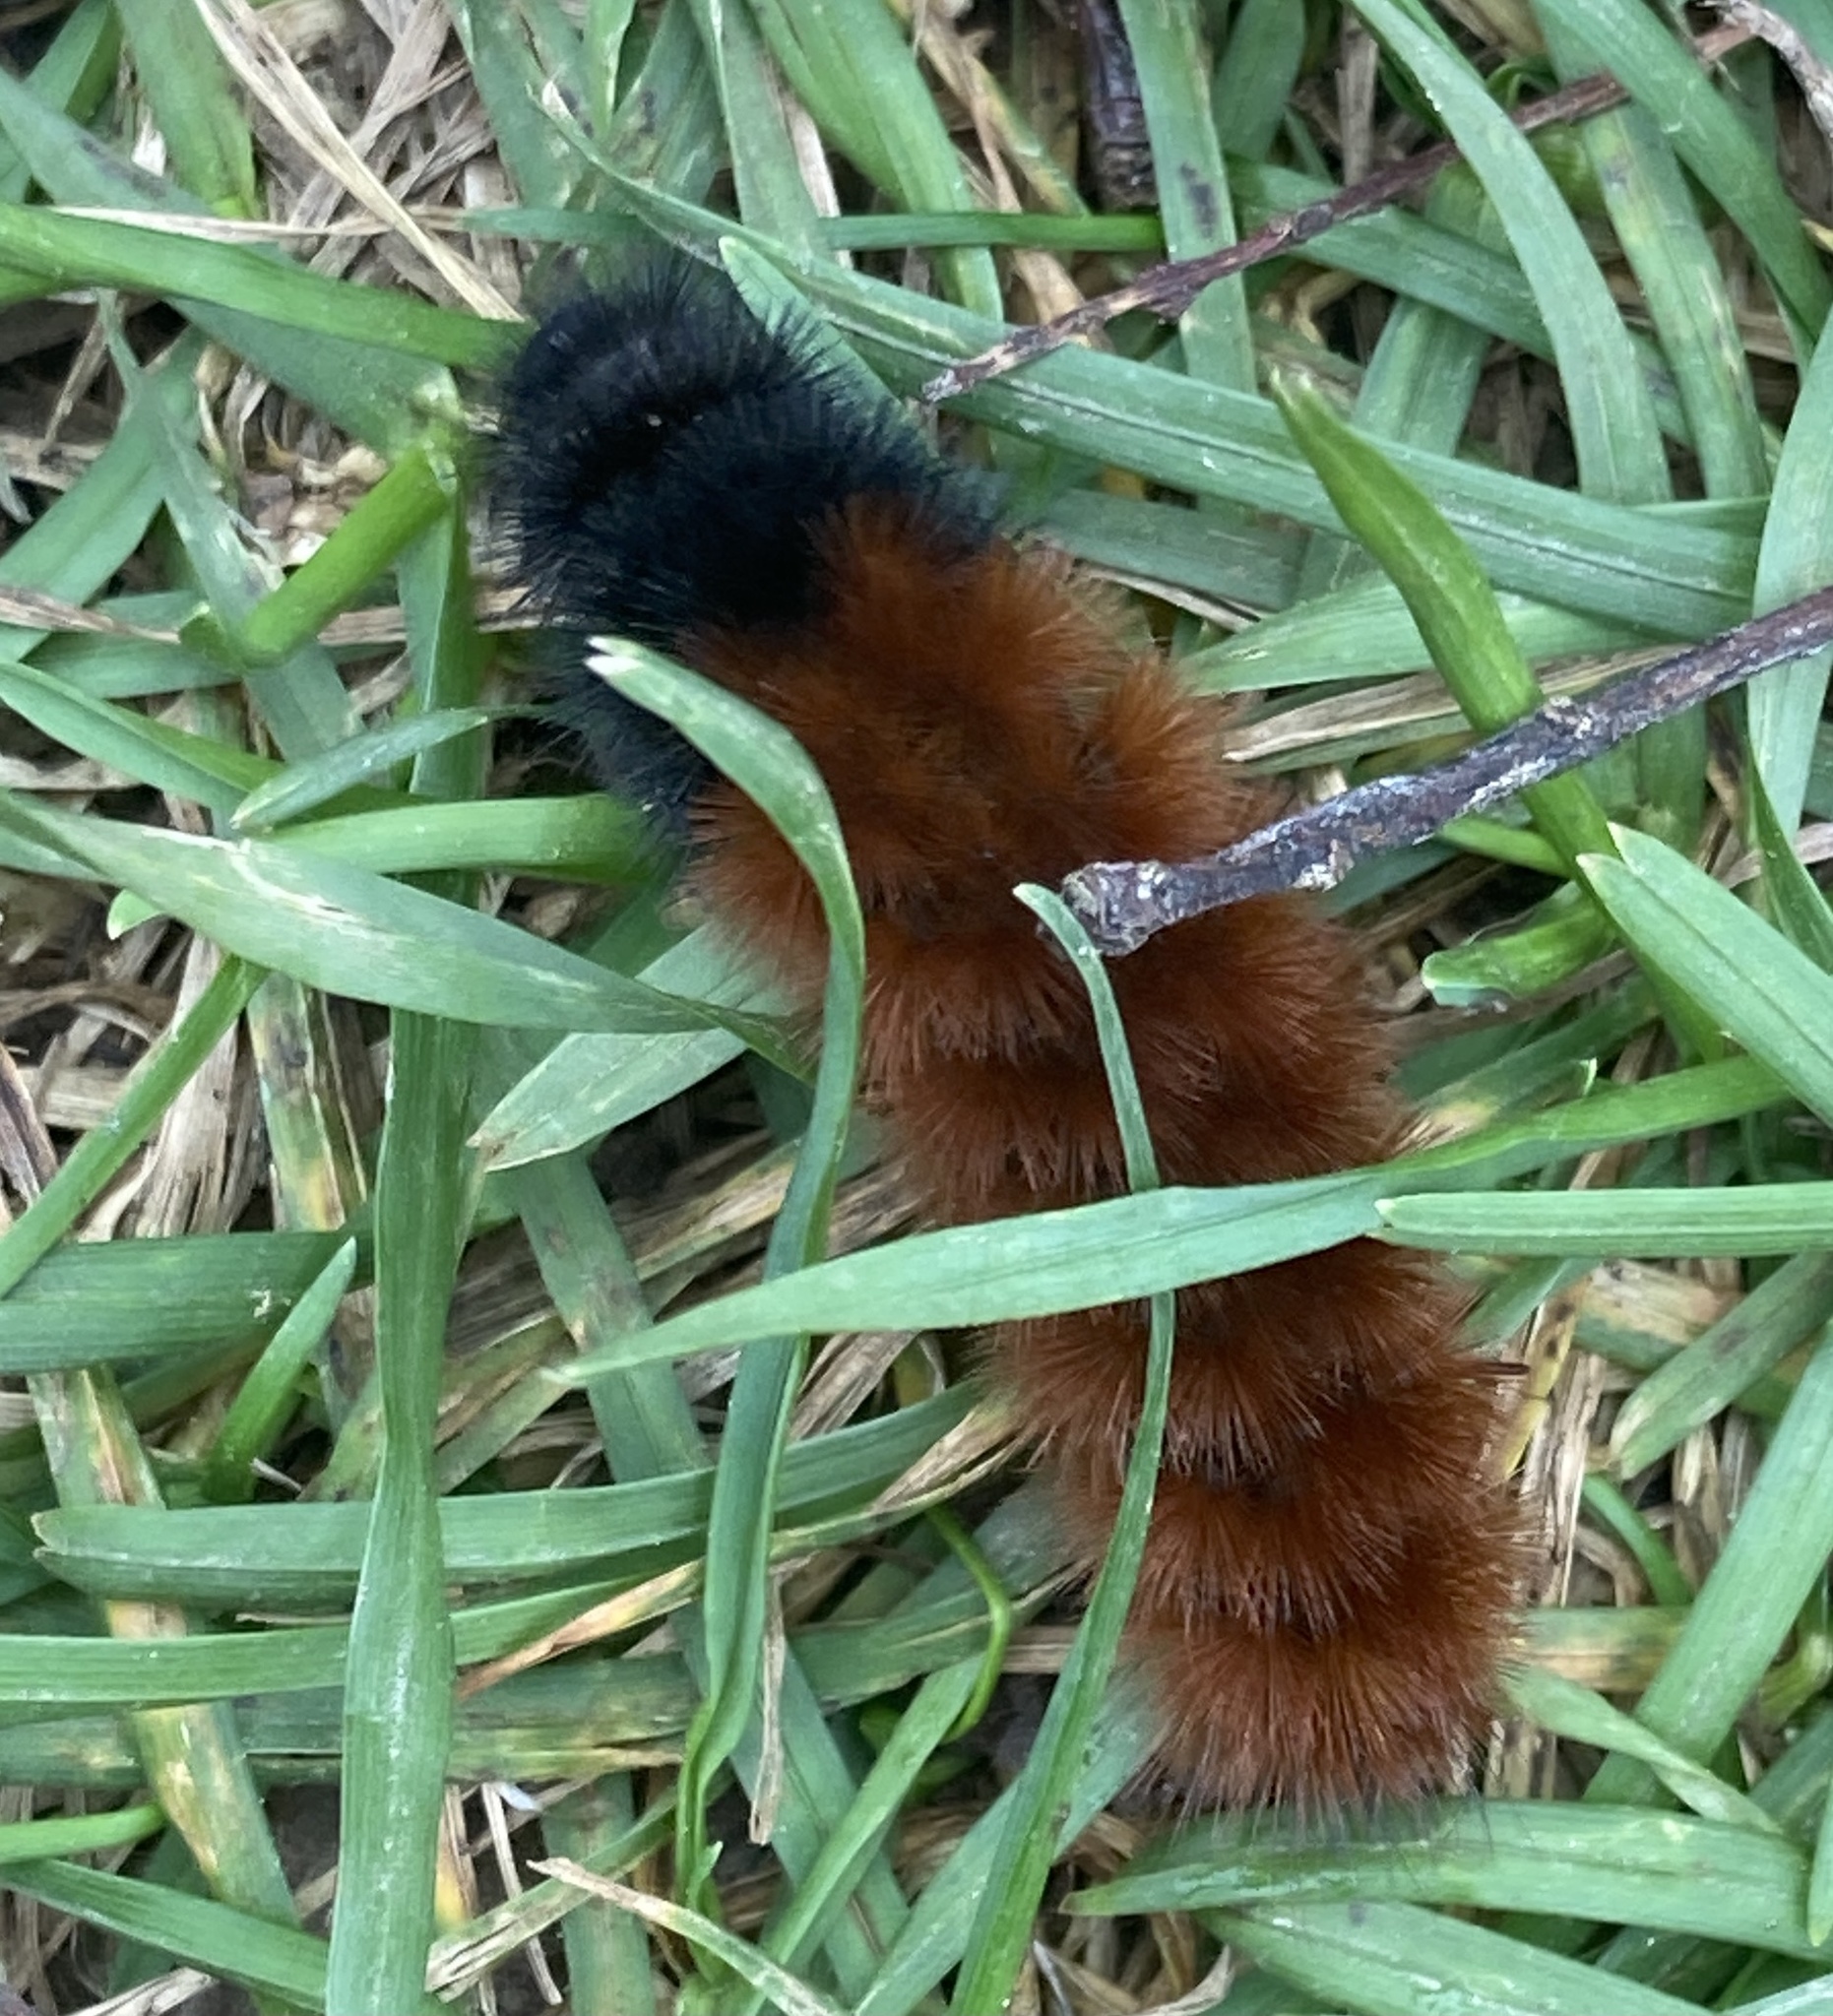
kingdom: Animalia
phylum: Arthropoda
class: Insecta
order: Lepidoptera
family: Erebidae
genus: Pyrrharctia
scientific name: Pyrrharctia isabella
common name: Isabella tiger moth
